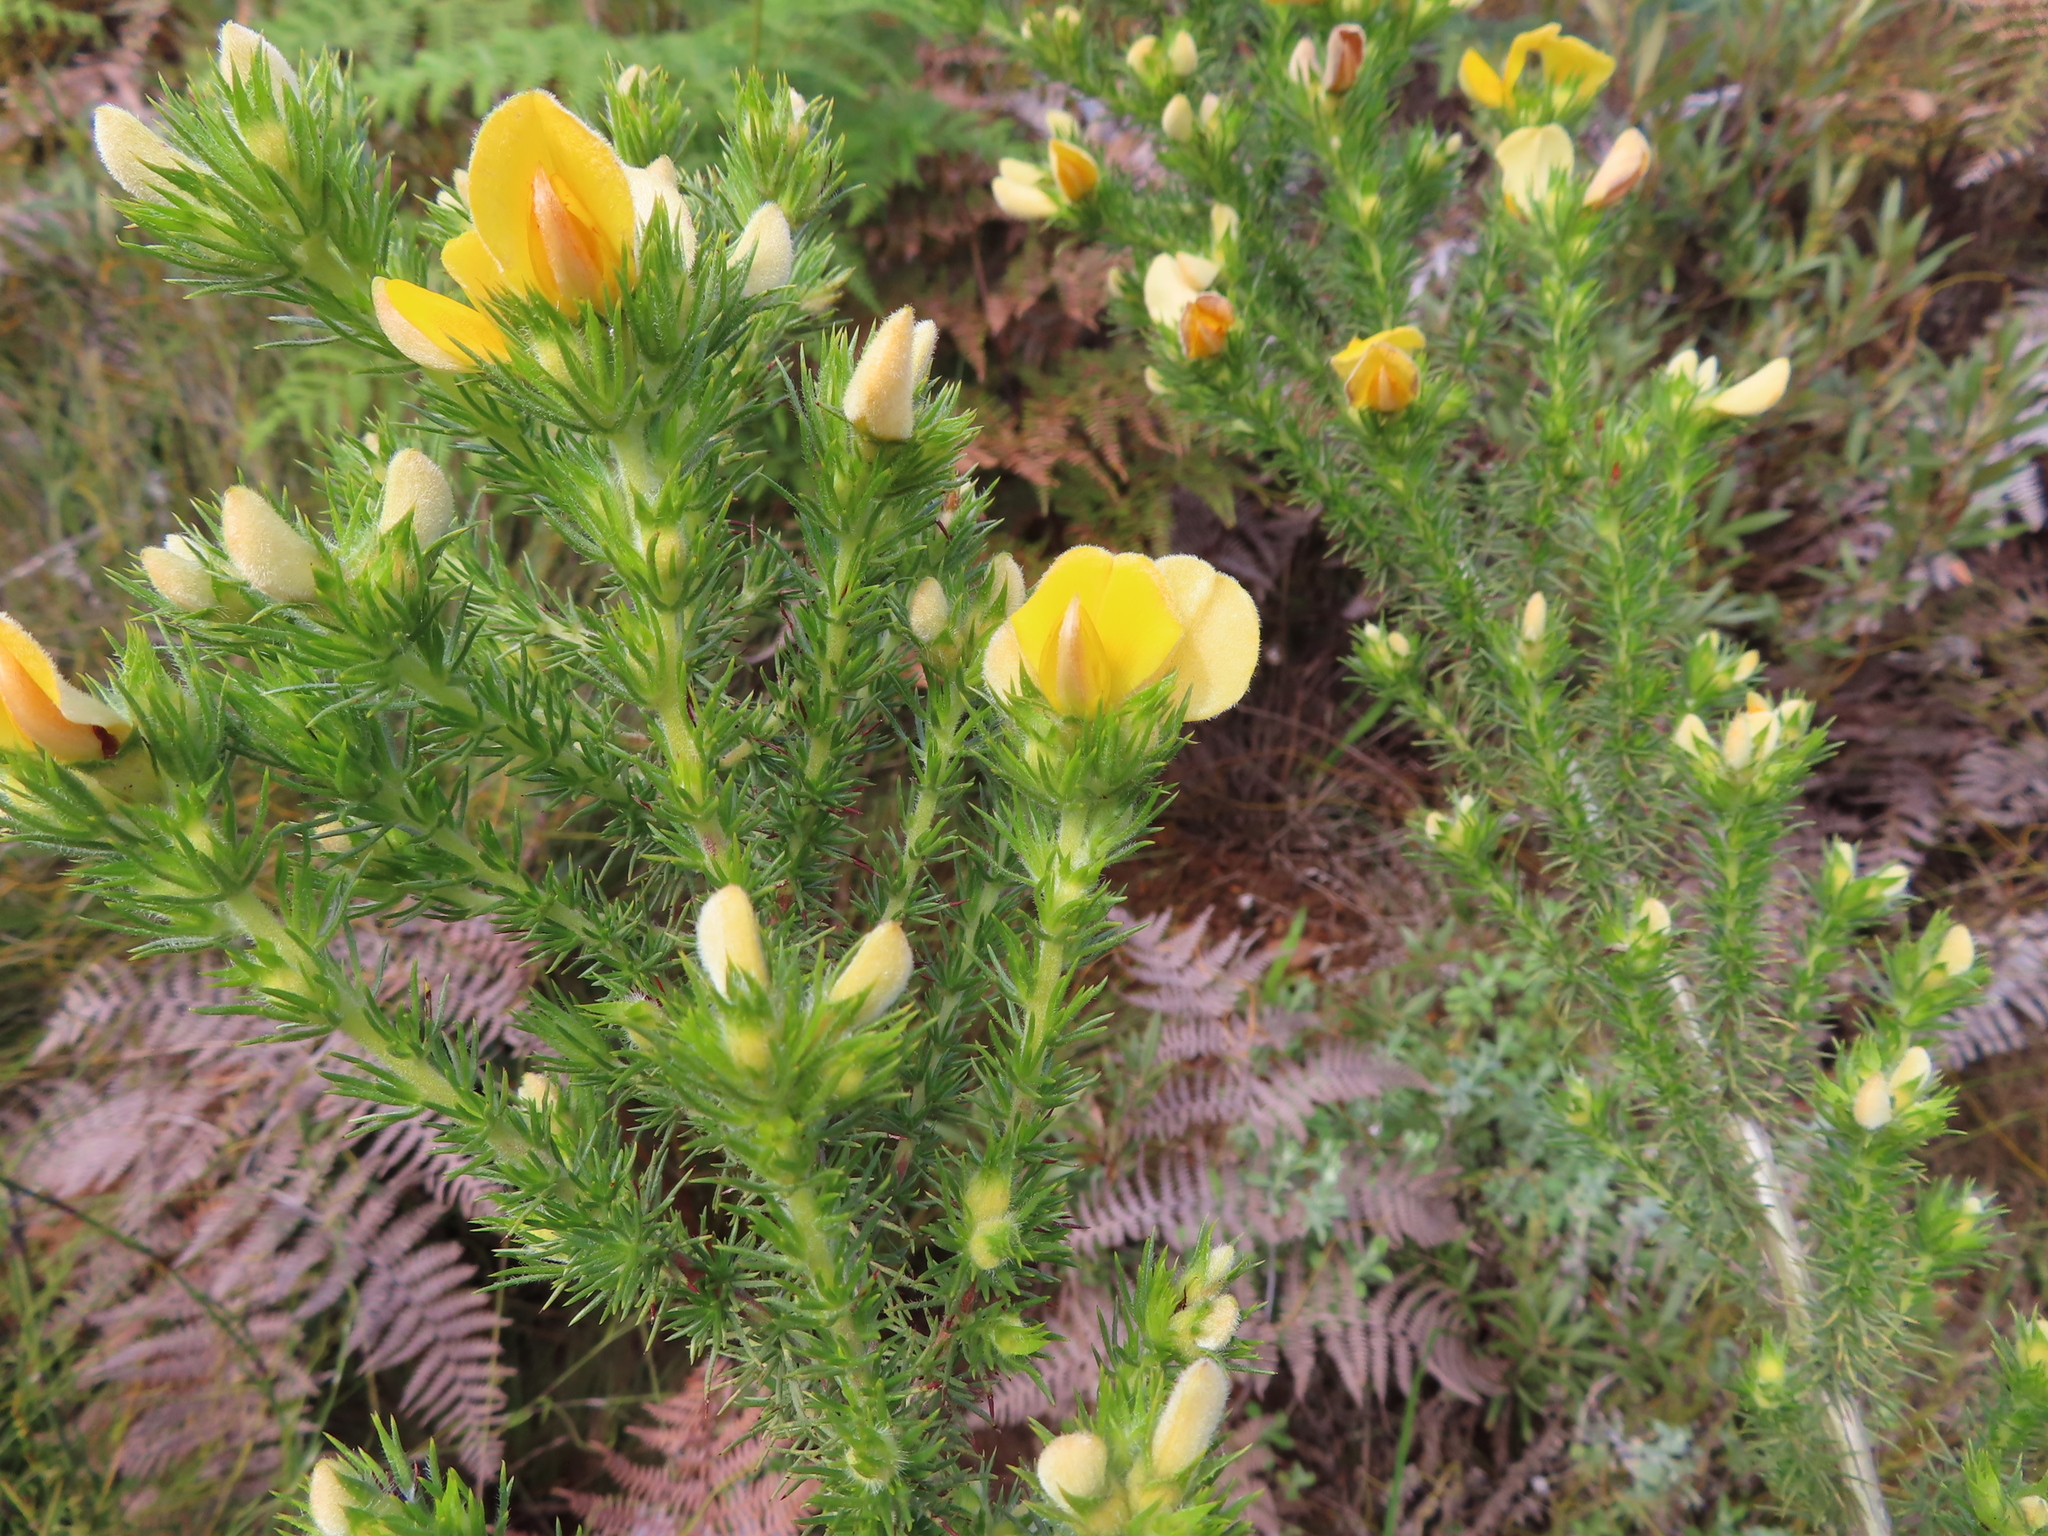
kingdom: Plantae
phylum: Tracheophyta
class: Magnoliopsida
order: Fabales
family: Fabaceae
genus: Aspalathus
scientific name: Aspalathus ciliaris
